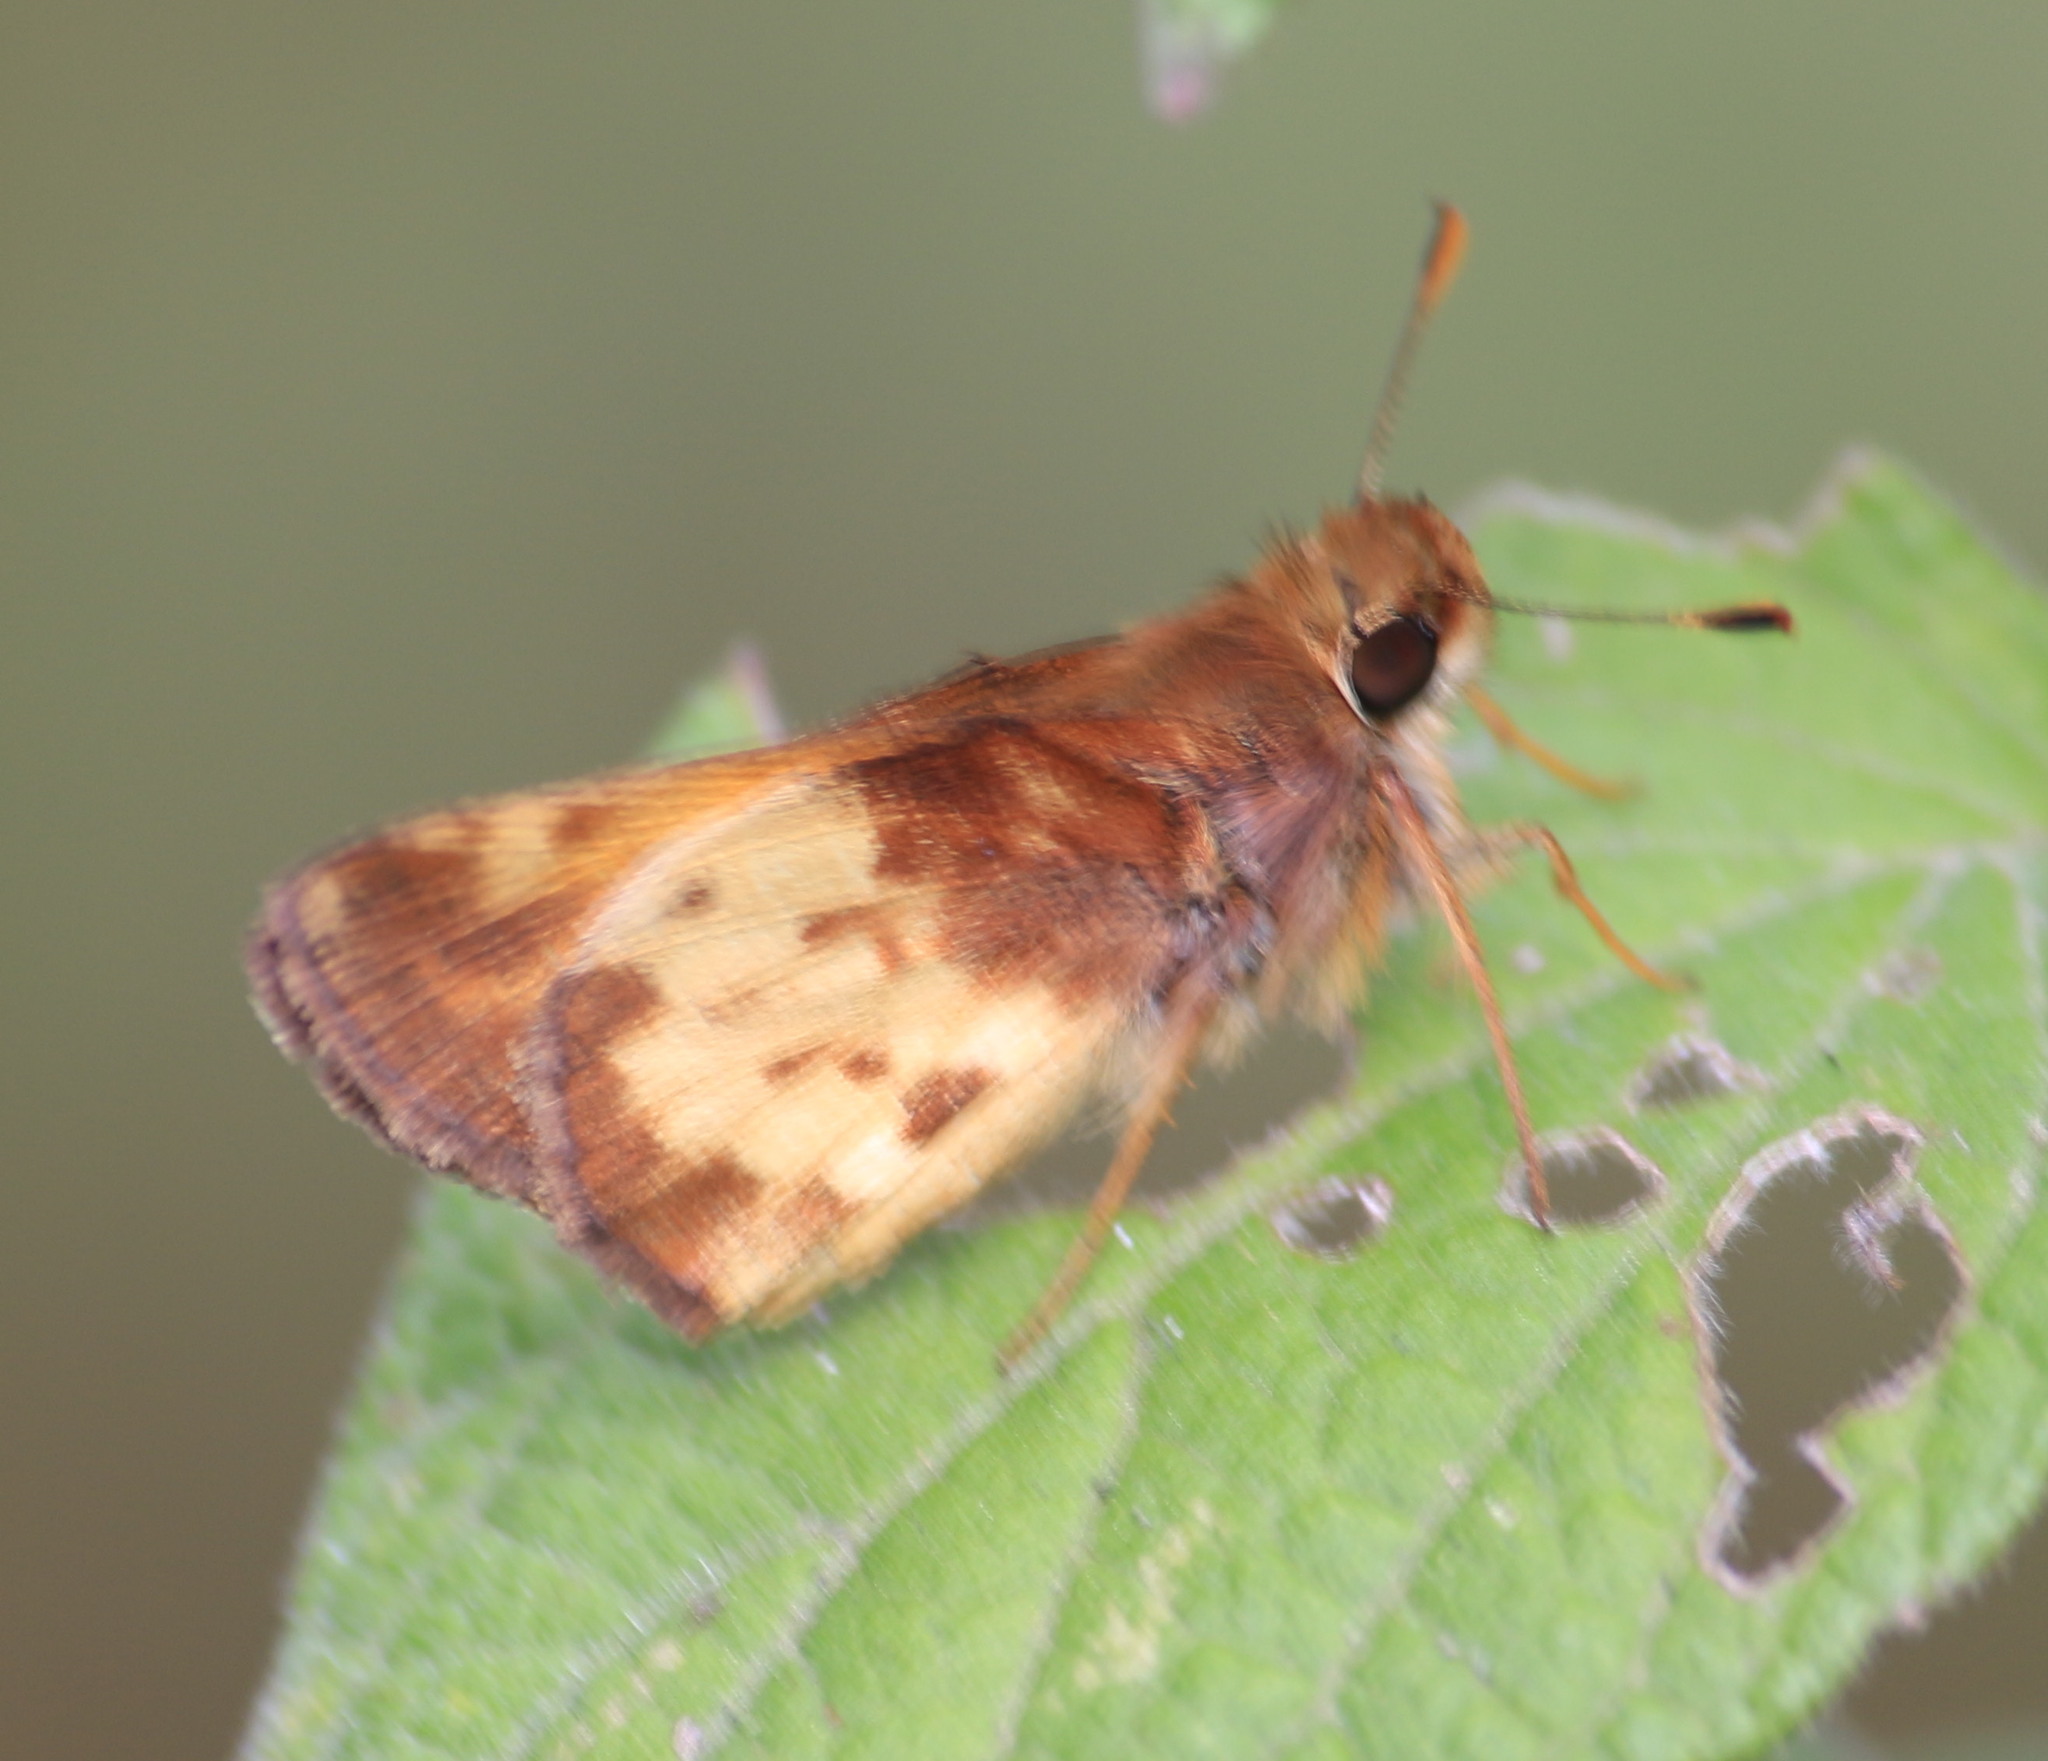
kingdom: Animalia
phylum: Arthropoda
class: Insecta
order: Lepidoptera
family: Hesperiidae
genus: Lon
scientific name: Lon zabulon
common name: Zabulon skipper
